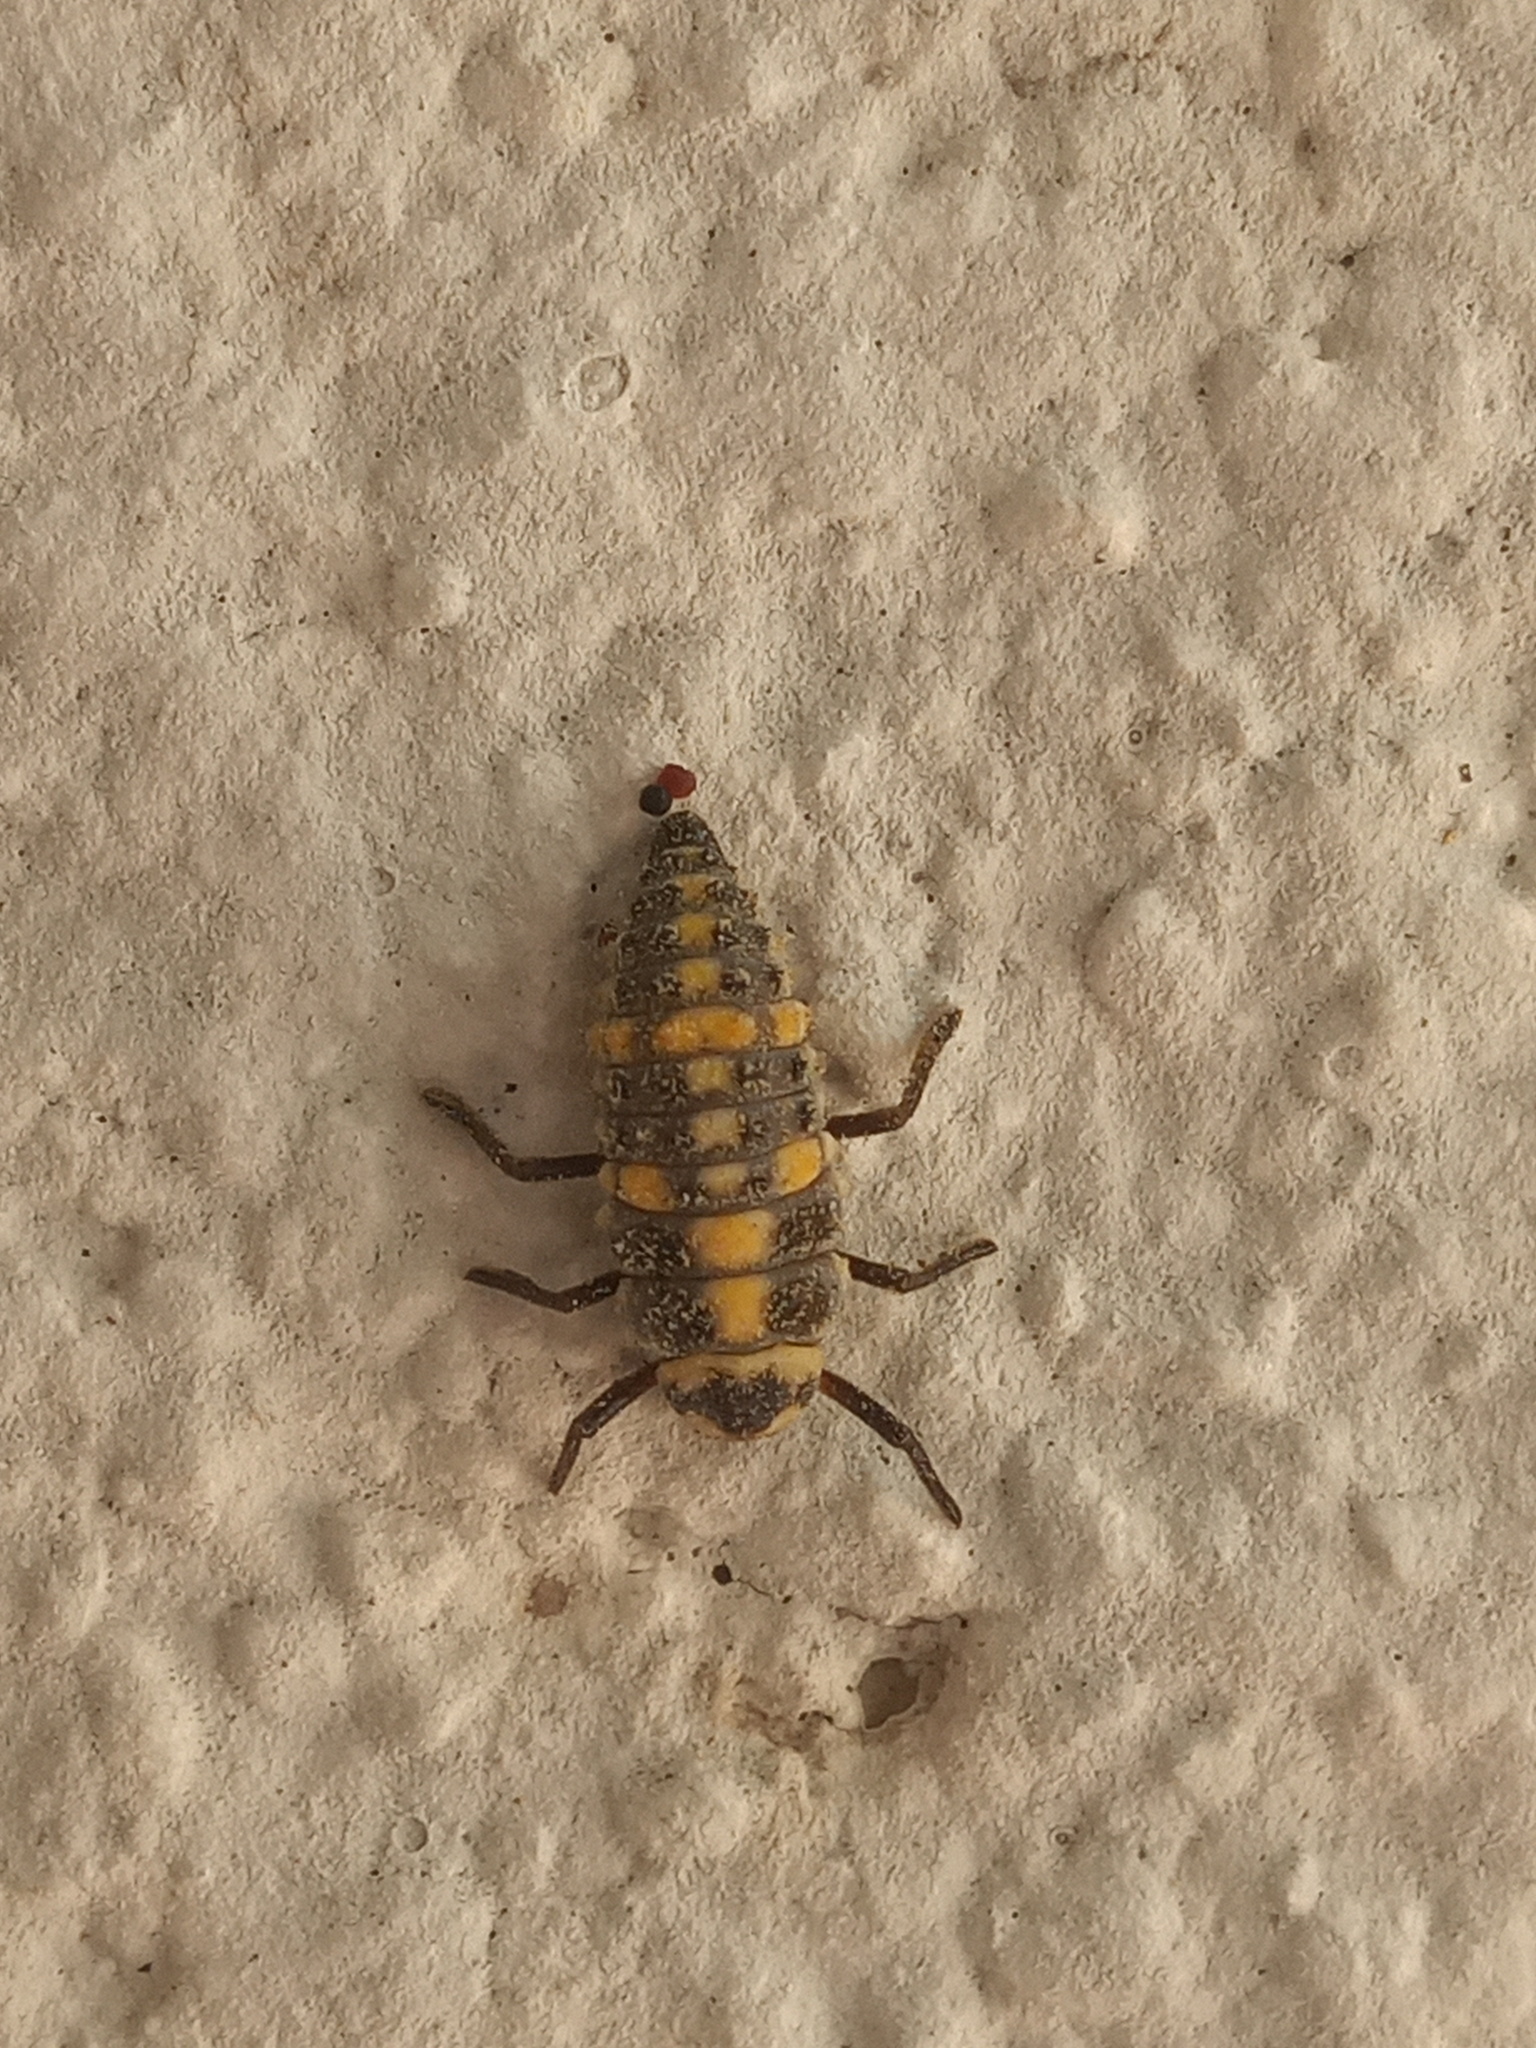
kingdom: Animalia
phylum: Arthropoda
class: Insecta
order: Coleoptera
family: Coccinellidae
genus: Olla
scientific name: Olla v-nigrum
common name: Ashy gray lady beetle
